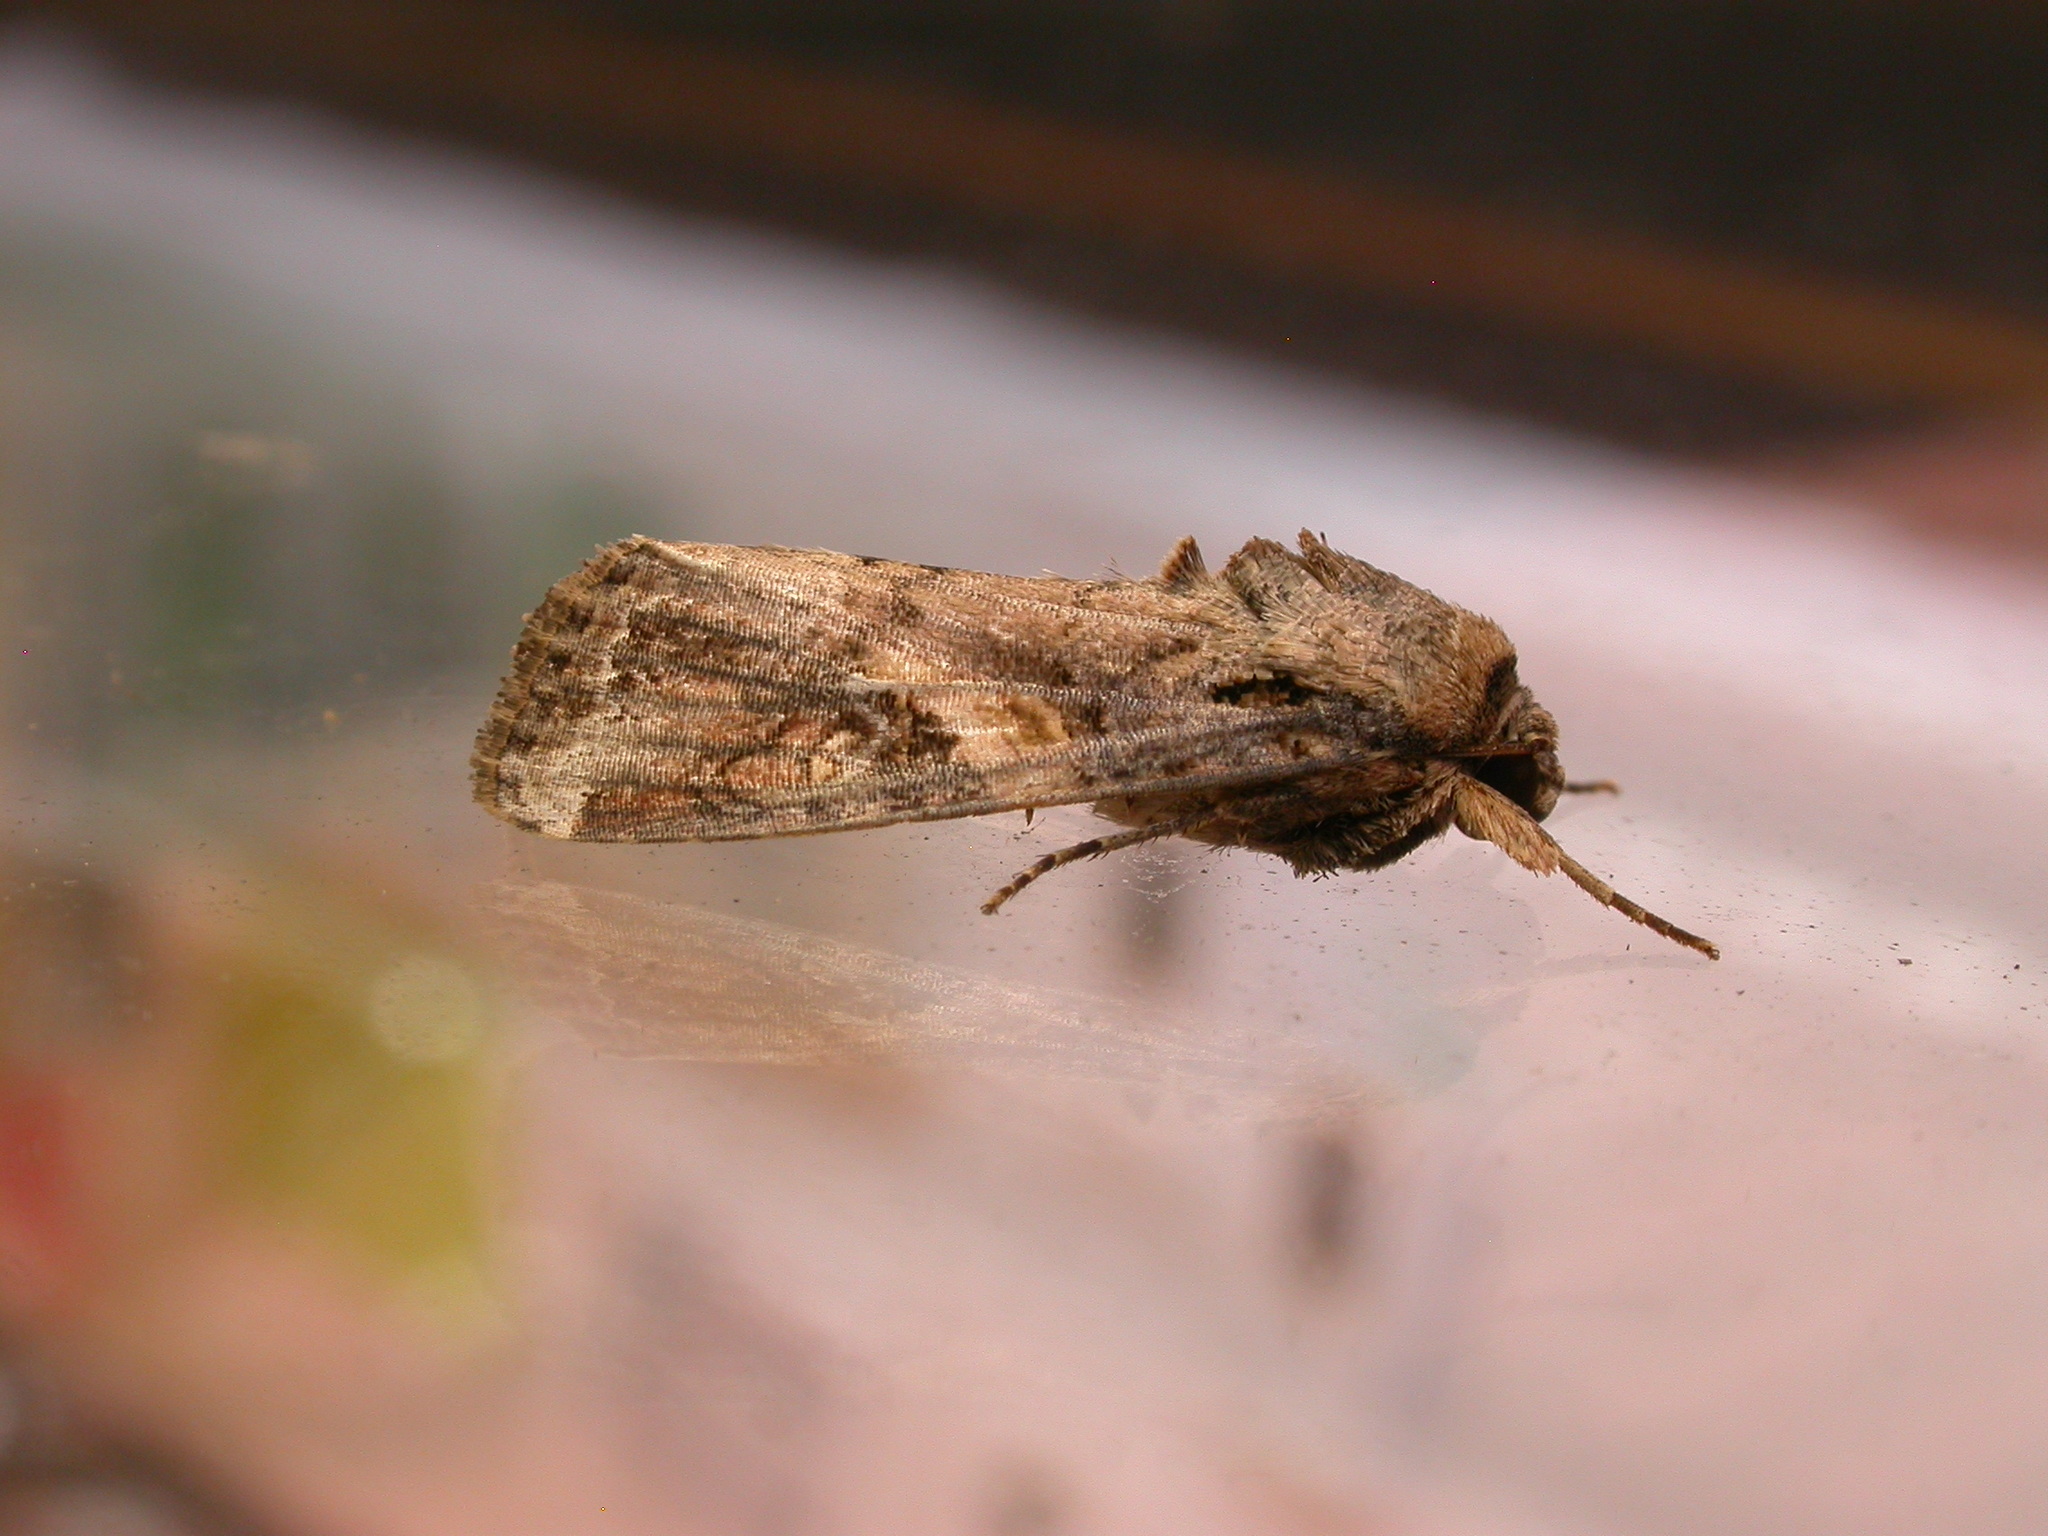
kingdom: Animalia
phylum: Arthropoda
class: Insecta
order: Lepidoptera
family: Noctuidae
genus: Spodoptera
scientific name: Spodoptera frugiperda
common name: Fall armyworm
